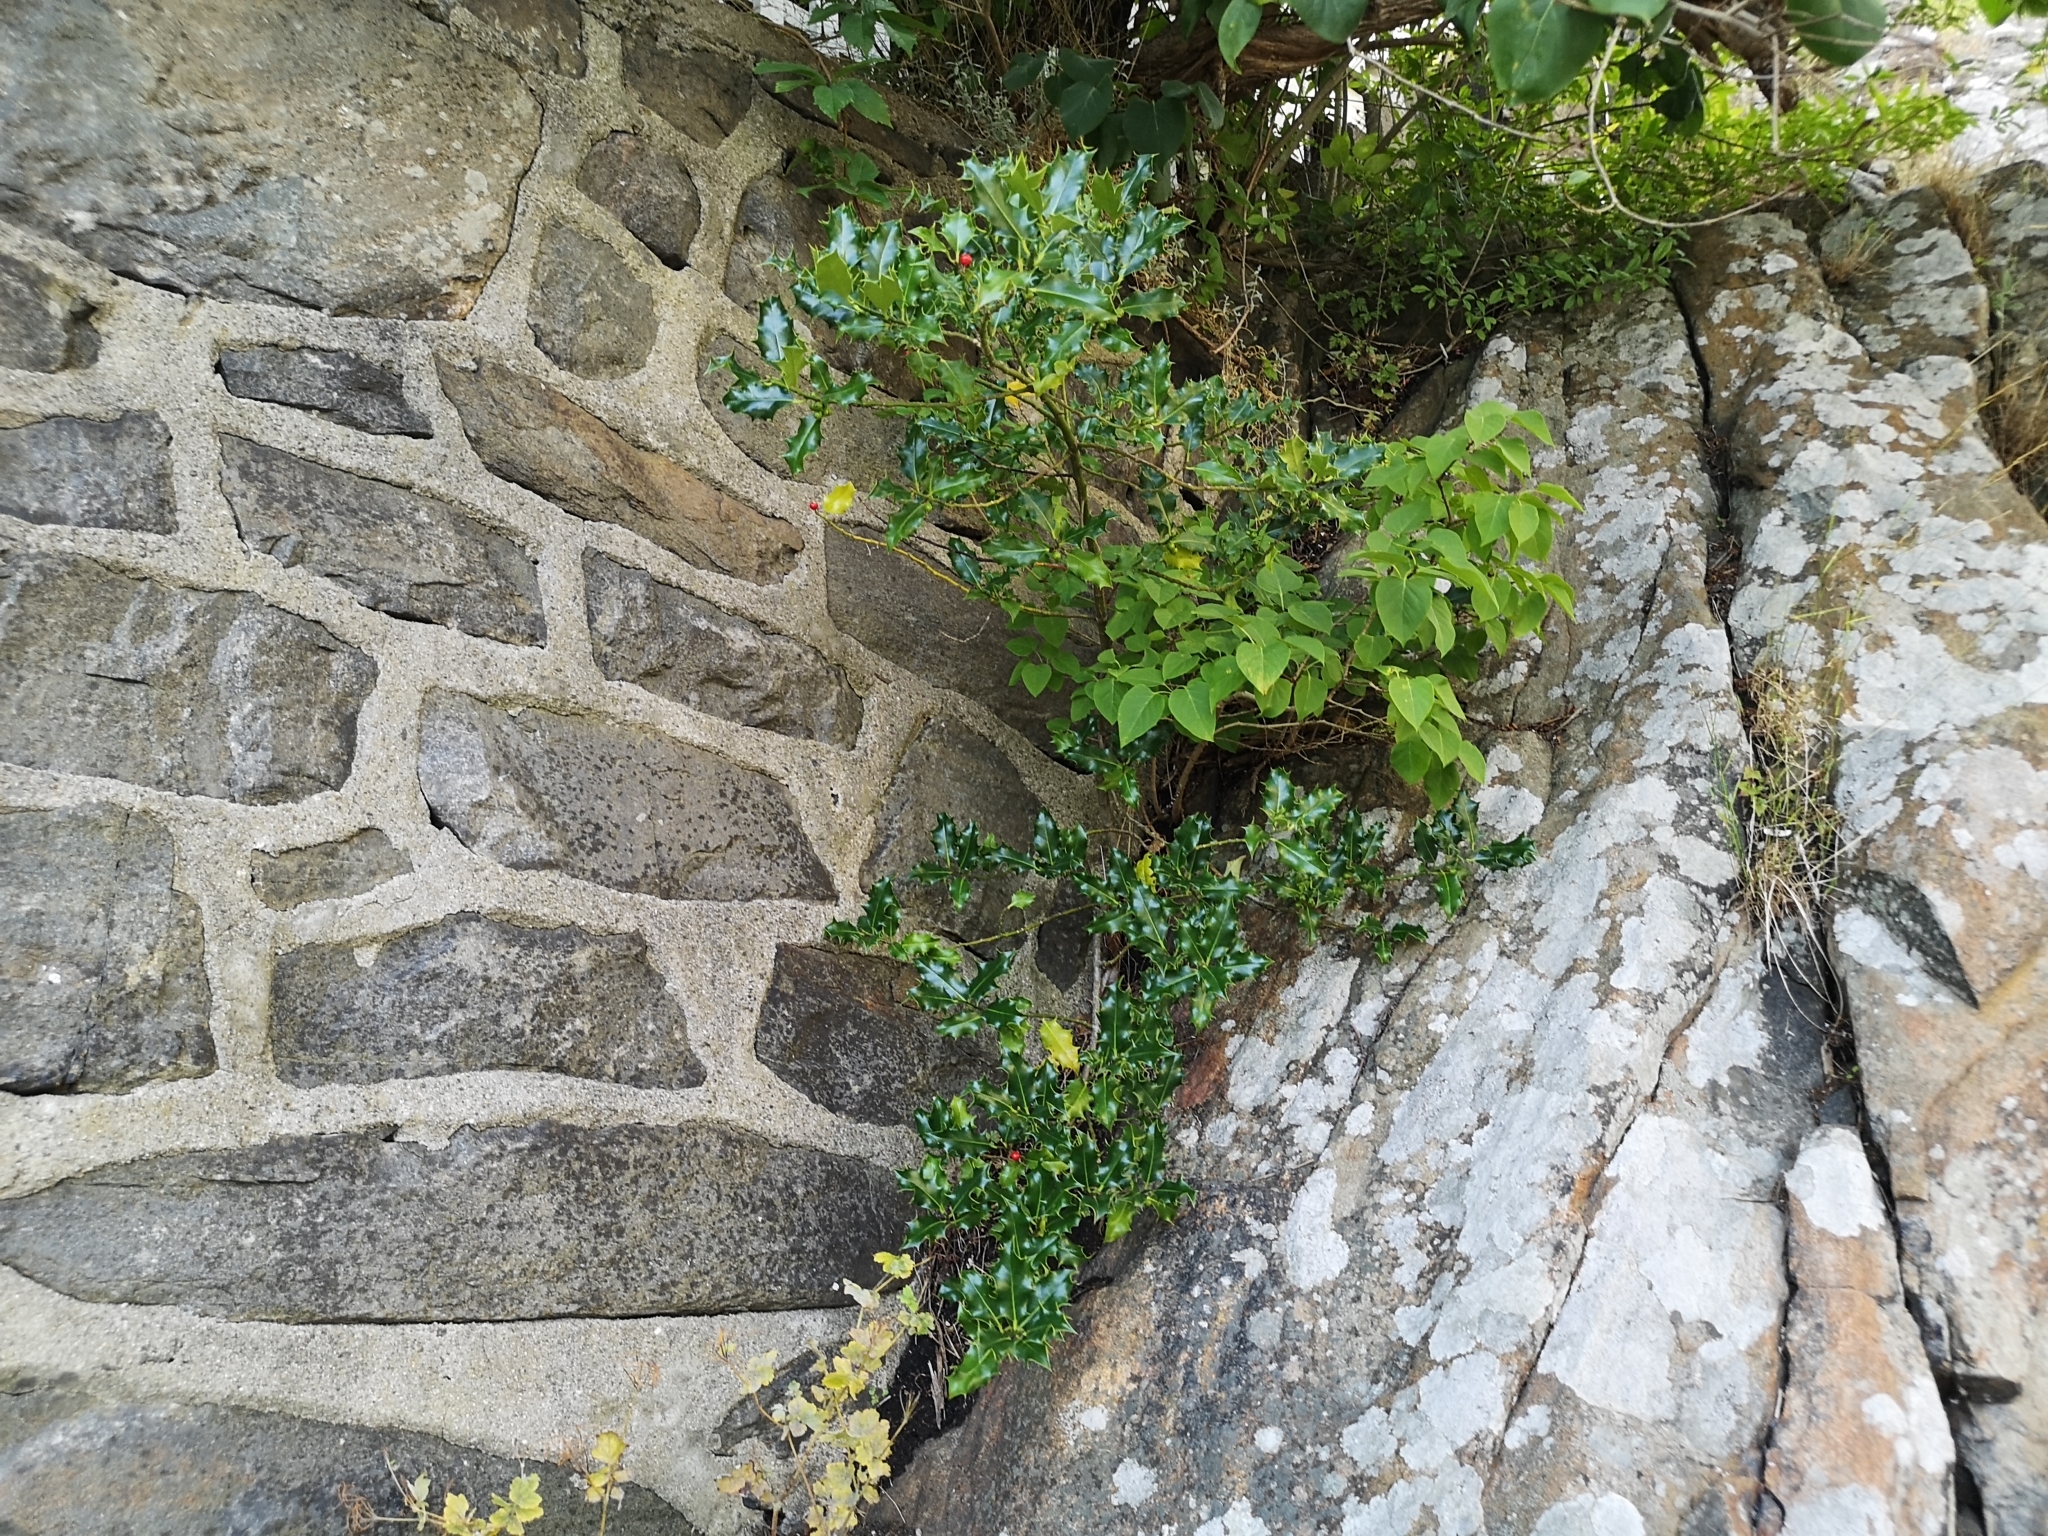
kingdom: Plantae
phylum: Tracheophyta
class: Magnoliopsida
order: Aquifoliales
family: Aquifoliaceae
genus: Ilex
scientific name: Ilex aquifolium
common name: English holly
